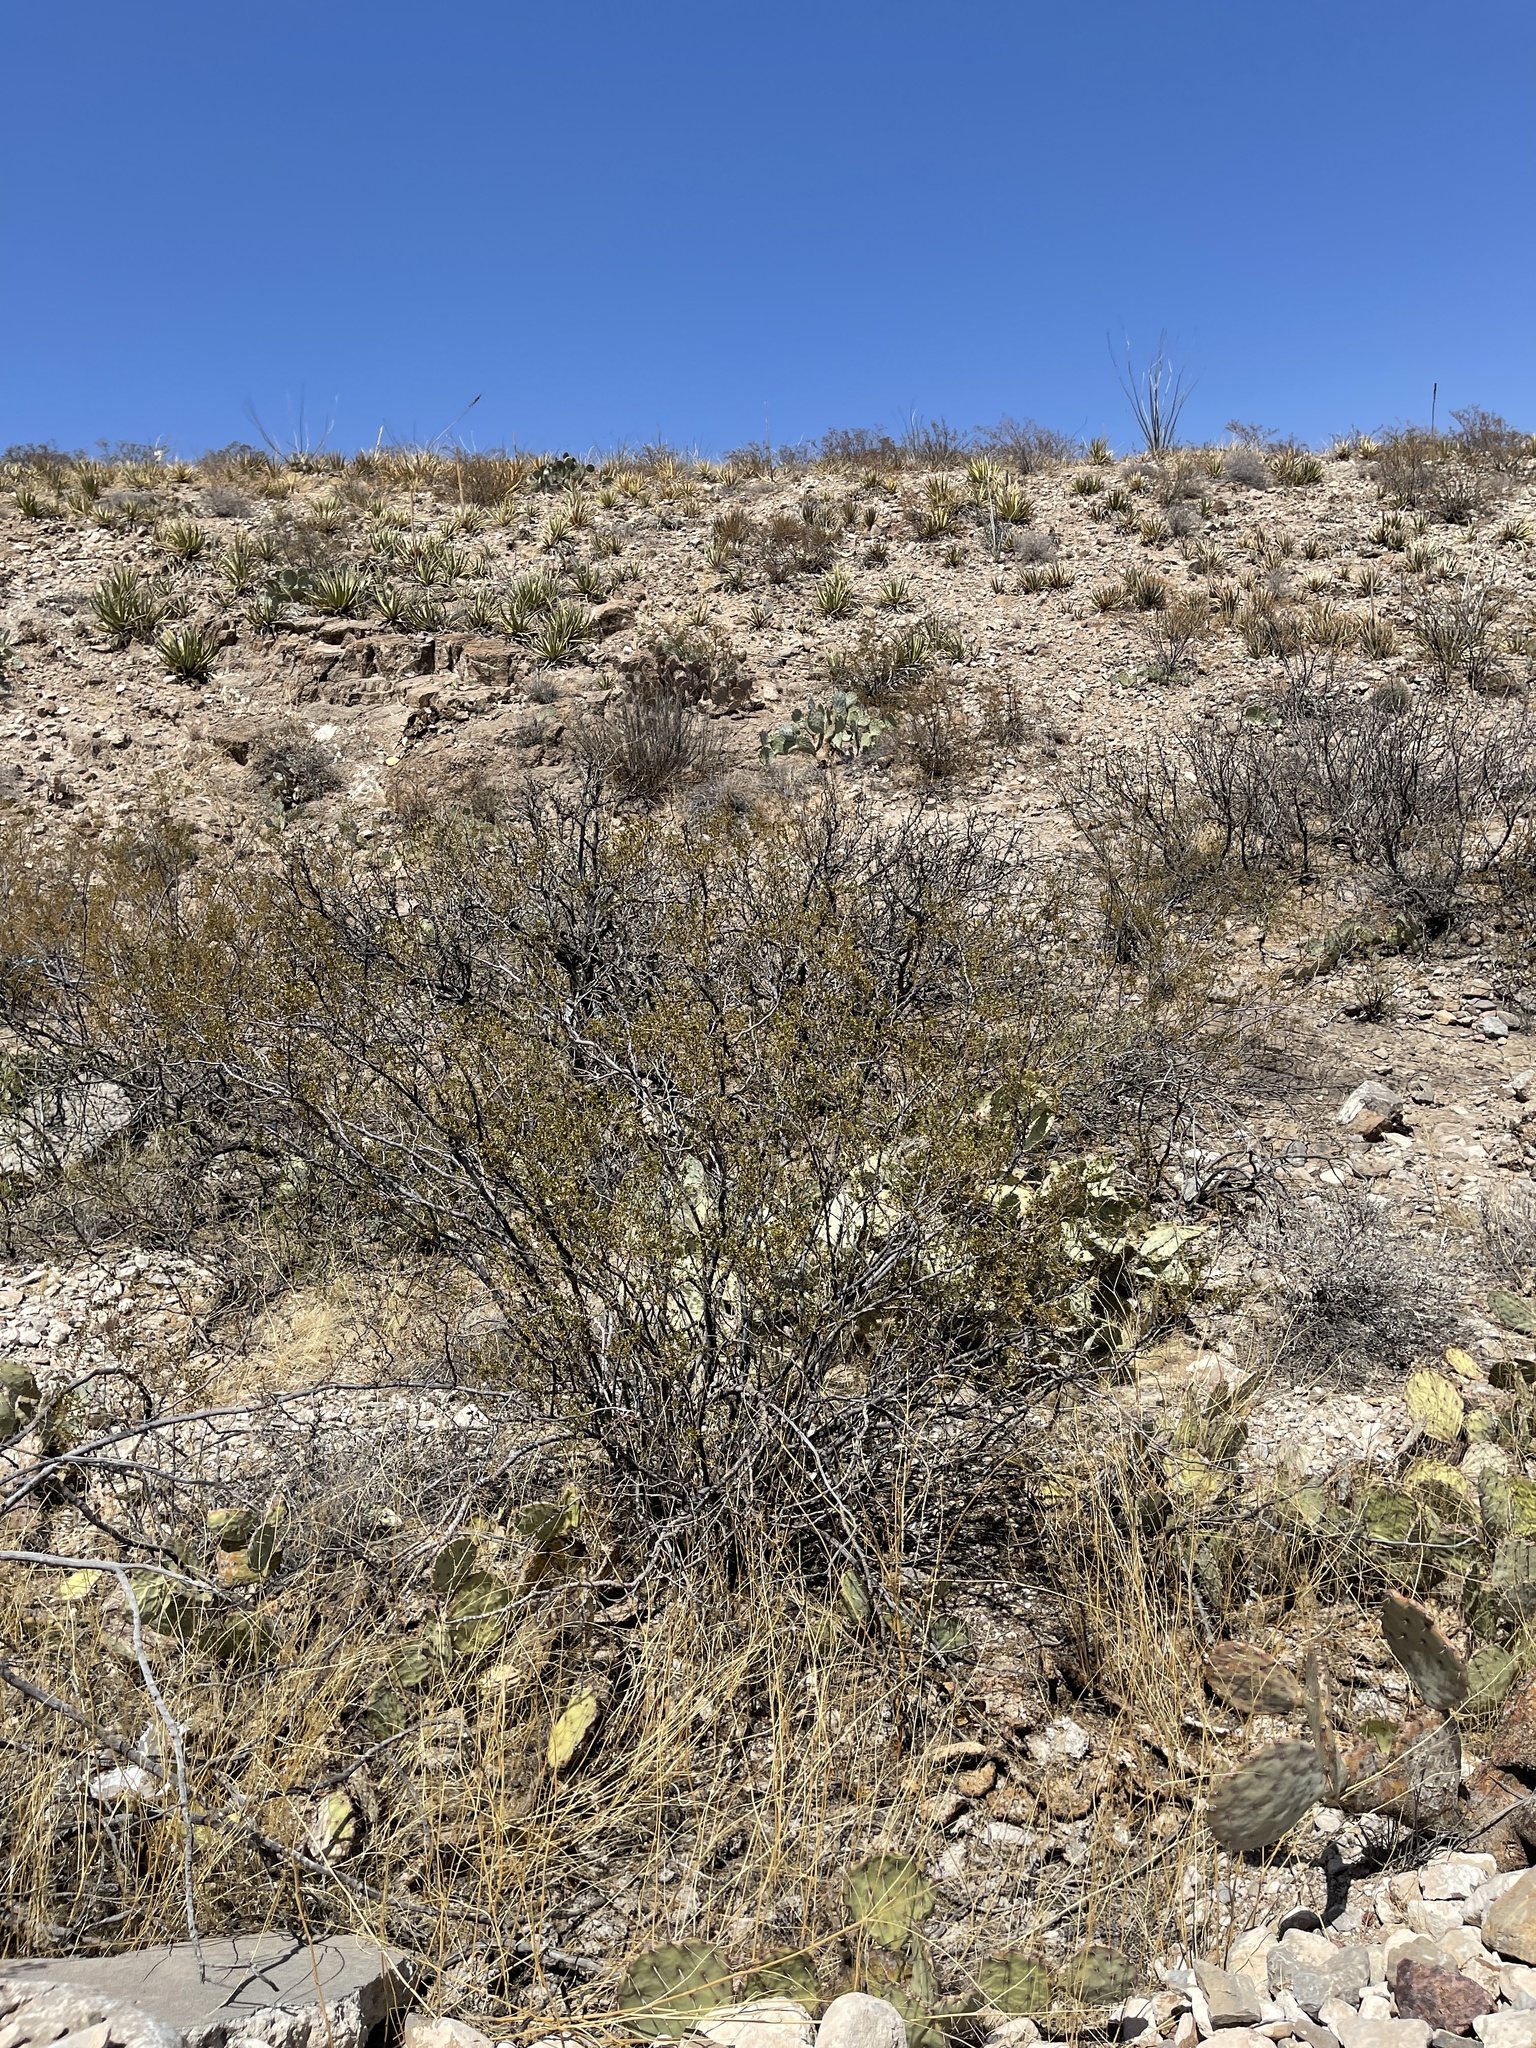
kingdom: Plantae
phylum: Tracheophyta
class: Magnoliopsida
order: Zygophyllales
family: Zygophyllaceae
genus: Larrea
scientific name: Larrea tridentata
